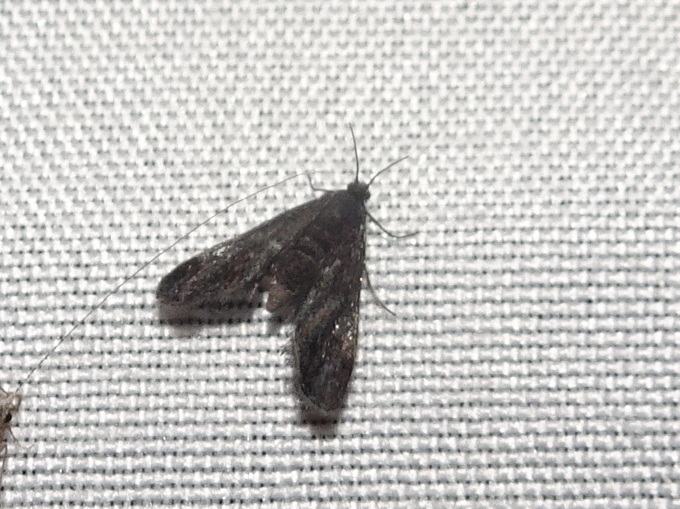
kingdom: Animalia
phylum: Arthropoda
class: Insecta
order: Lepidoptera
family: Crambidae
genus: Elophila
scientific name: Elophila tinealis
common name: Black duckweed moth
